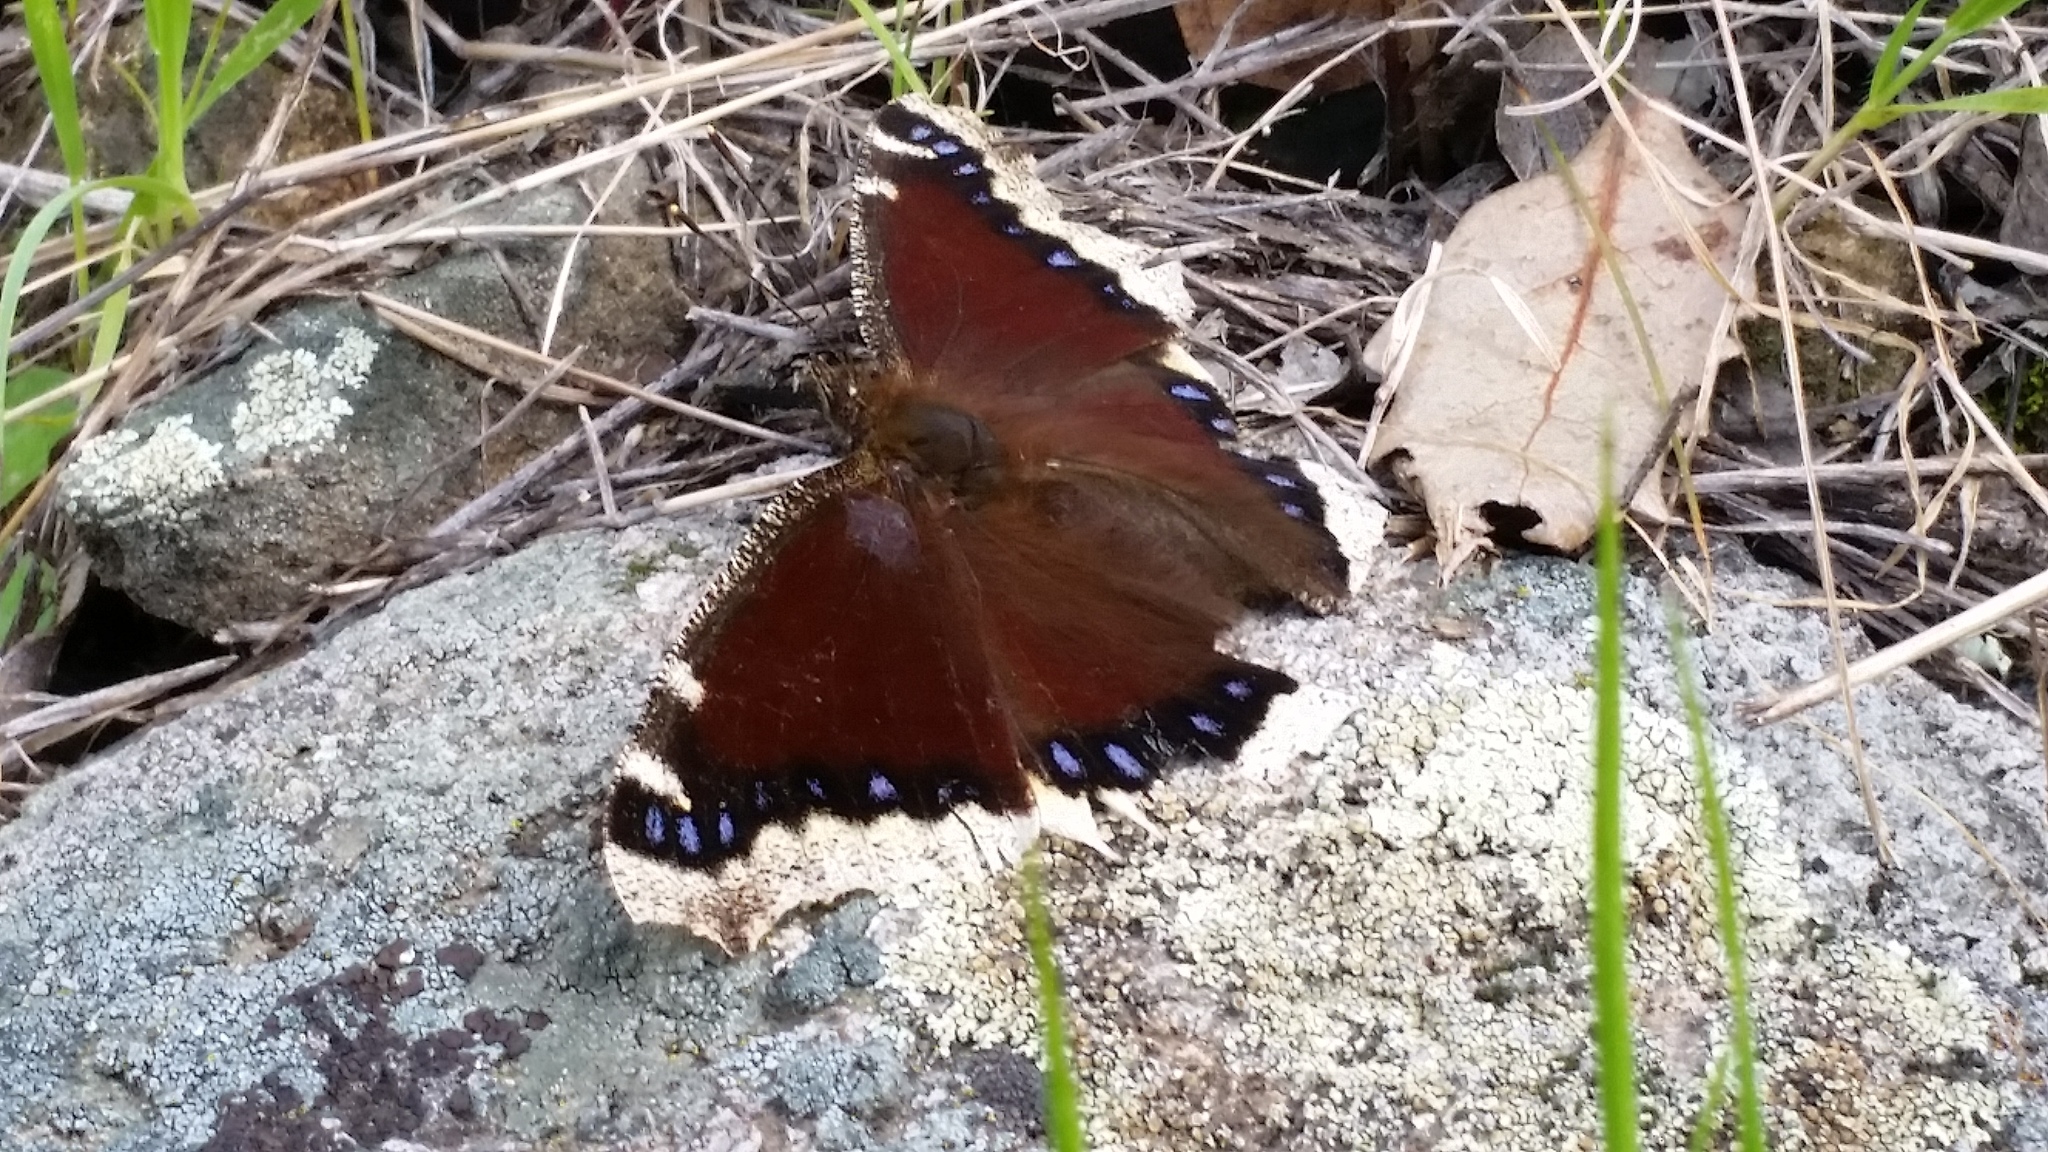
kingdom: Animalia
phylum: Arthropoda
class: Insecta
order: Lepidoptera
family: Nymphalidae
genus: Nymphalis
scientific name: Nymphalis antiopa
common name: Camberwell beauty
